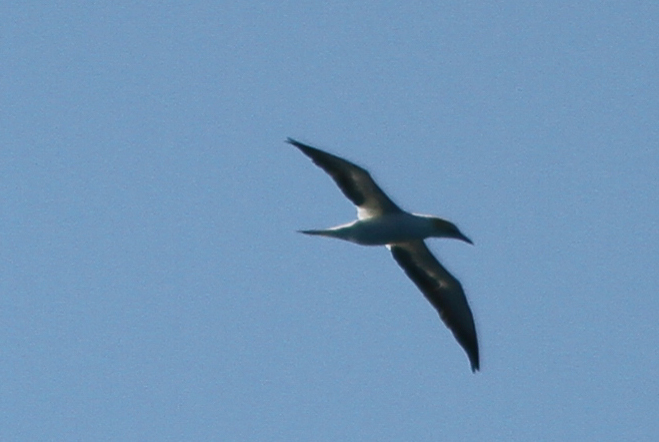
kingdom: Animalia
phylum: Chordata
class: Aves
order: Suliformes
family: Sulidae
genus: Morus
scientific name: Morus serrator
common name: Australasian gannet
